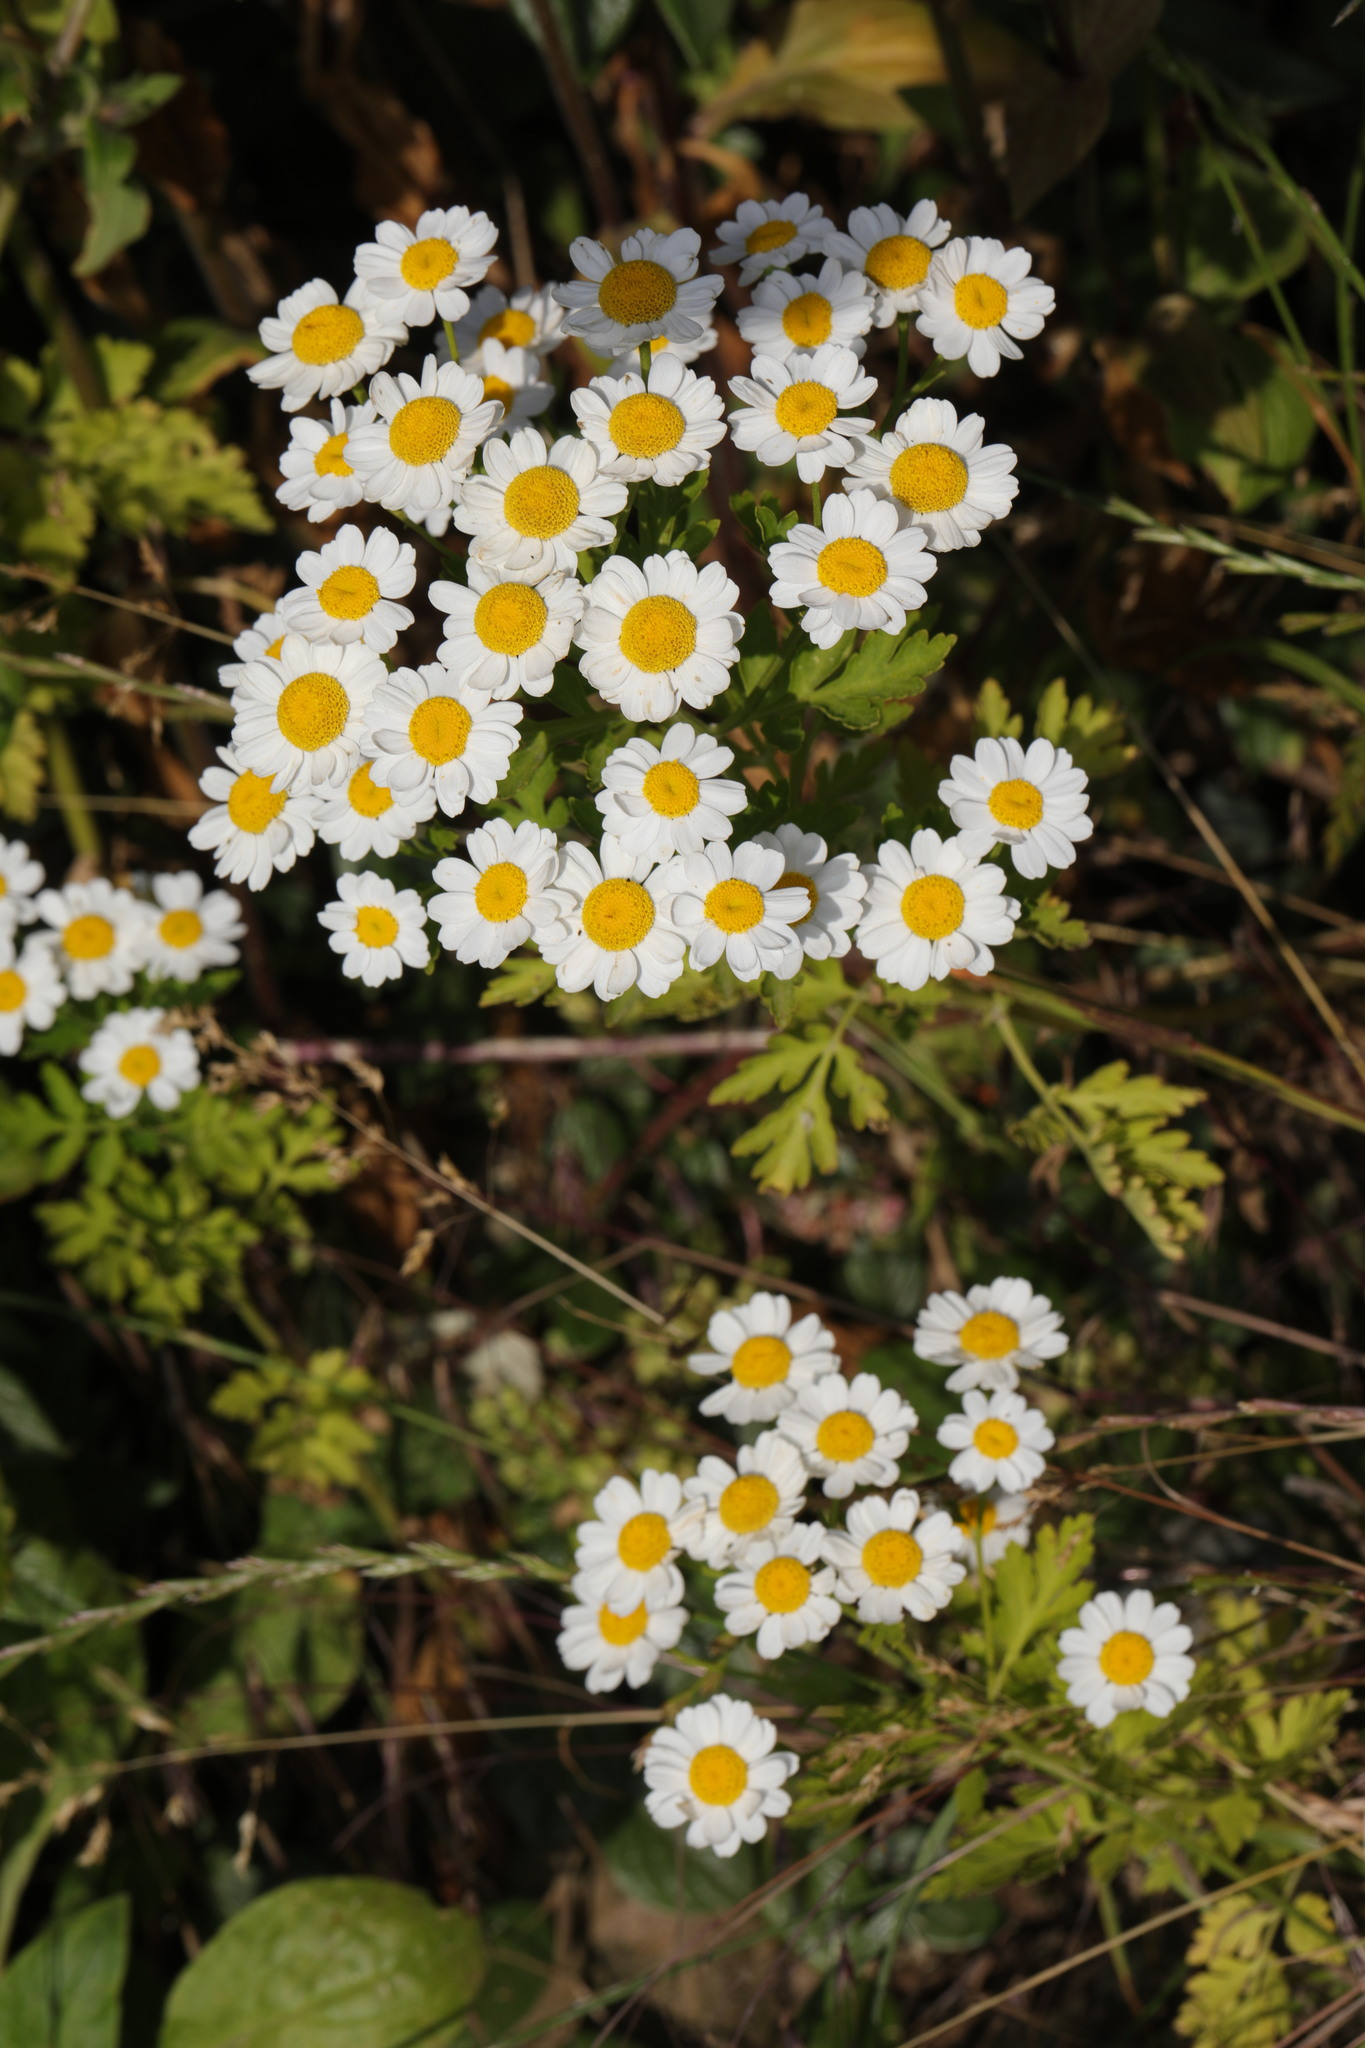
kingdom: Plantae
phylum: Tracheophyta
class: Magnoliopsida
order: Asterales
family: Asteraceae
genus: Tanacetum
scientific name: Tanacetum parthenium
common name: Feverfew
